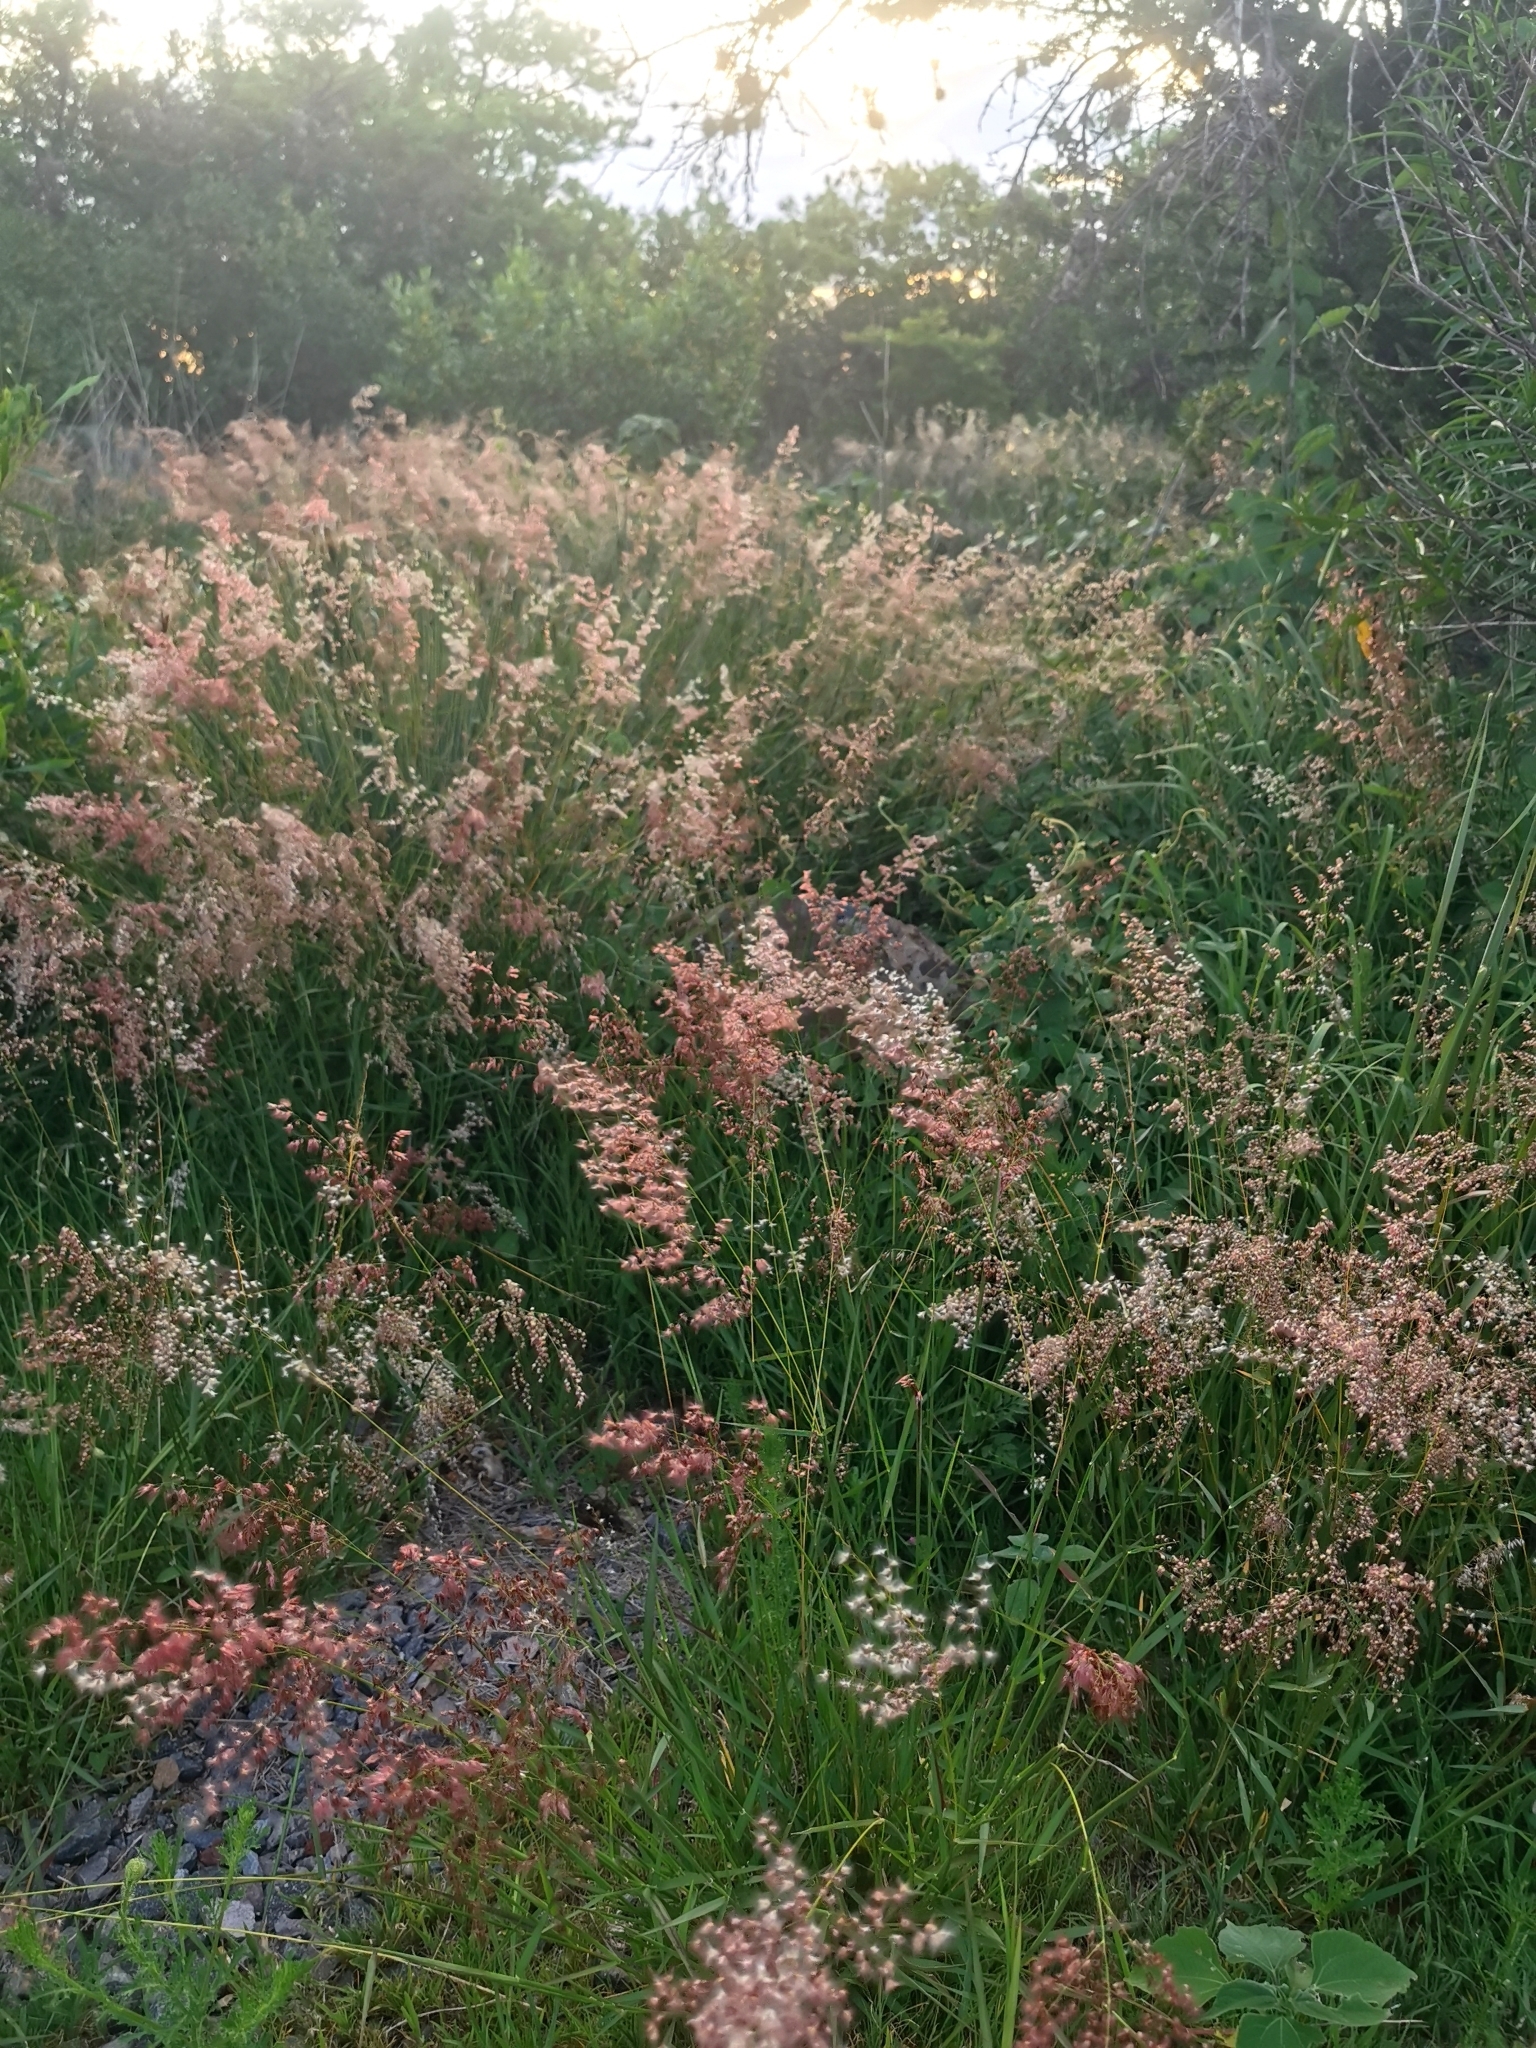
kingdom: Plantae
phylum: Tracheophyta
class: Liliopsida
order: Poales
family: Poaceae
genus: Melinis
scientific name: Melinis repens
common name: Rose natal grass
